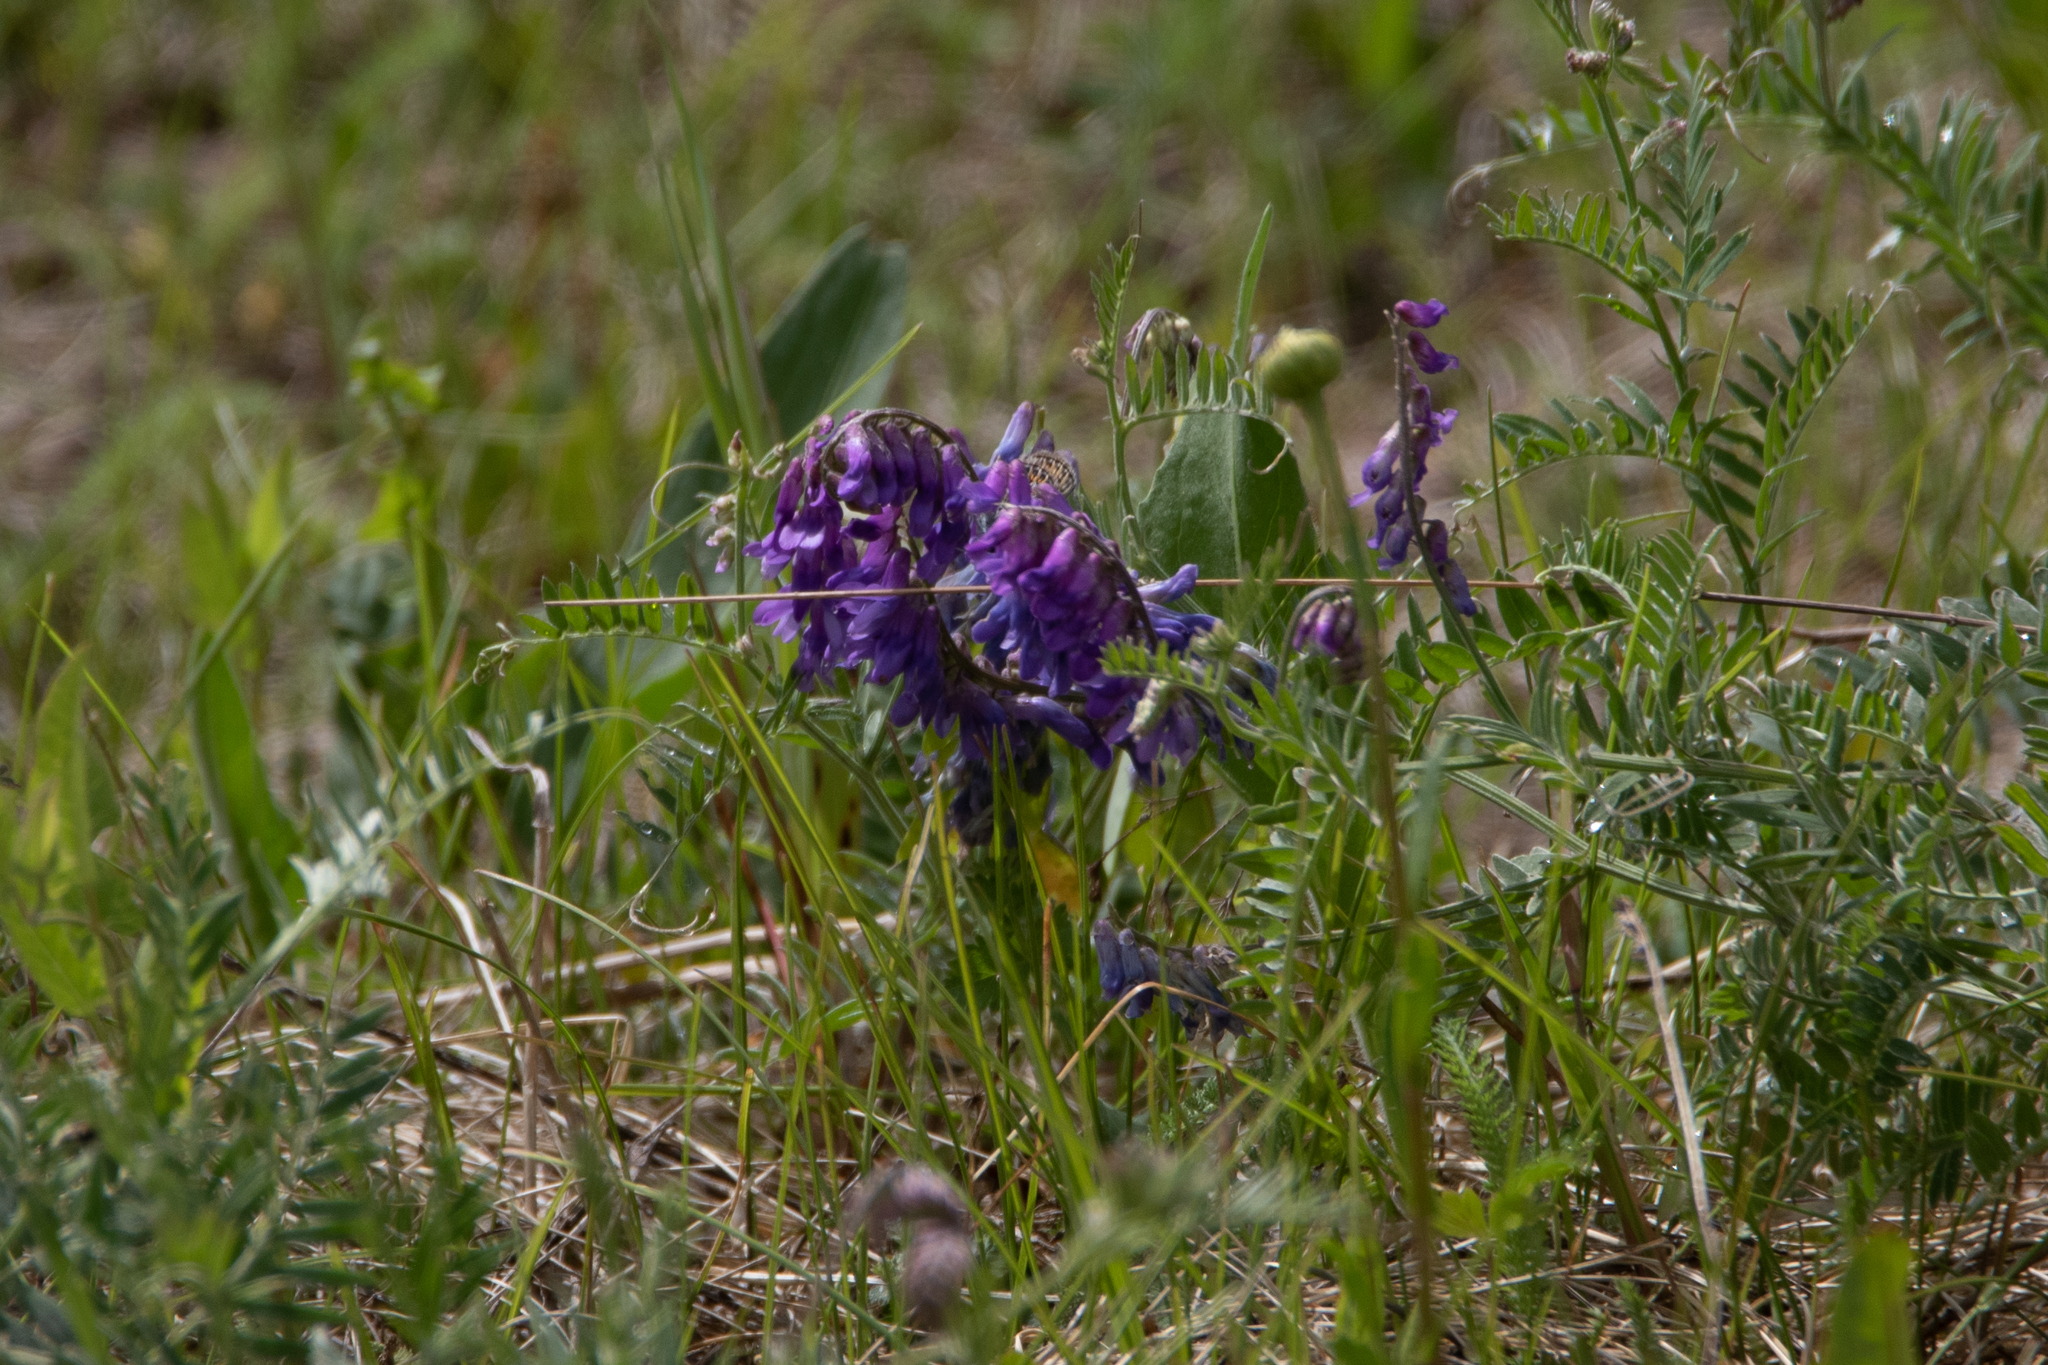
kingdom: Plantae
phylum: Tracheophyta
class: Magnoliopsida
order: Fabales
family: Fabaceae
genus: Vicia
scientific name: Vicia cracca
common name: Bird vetch
